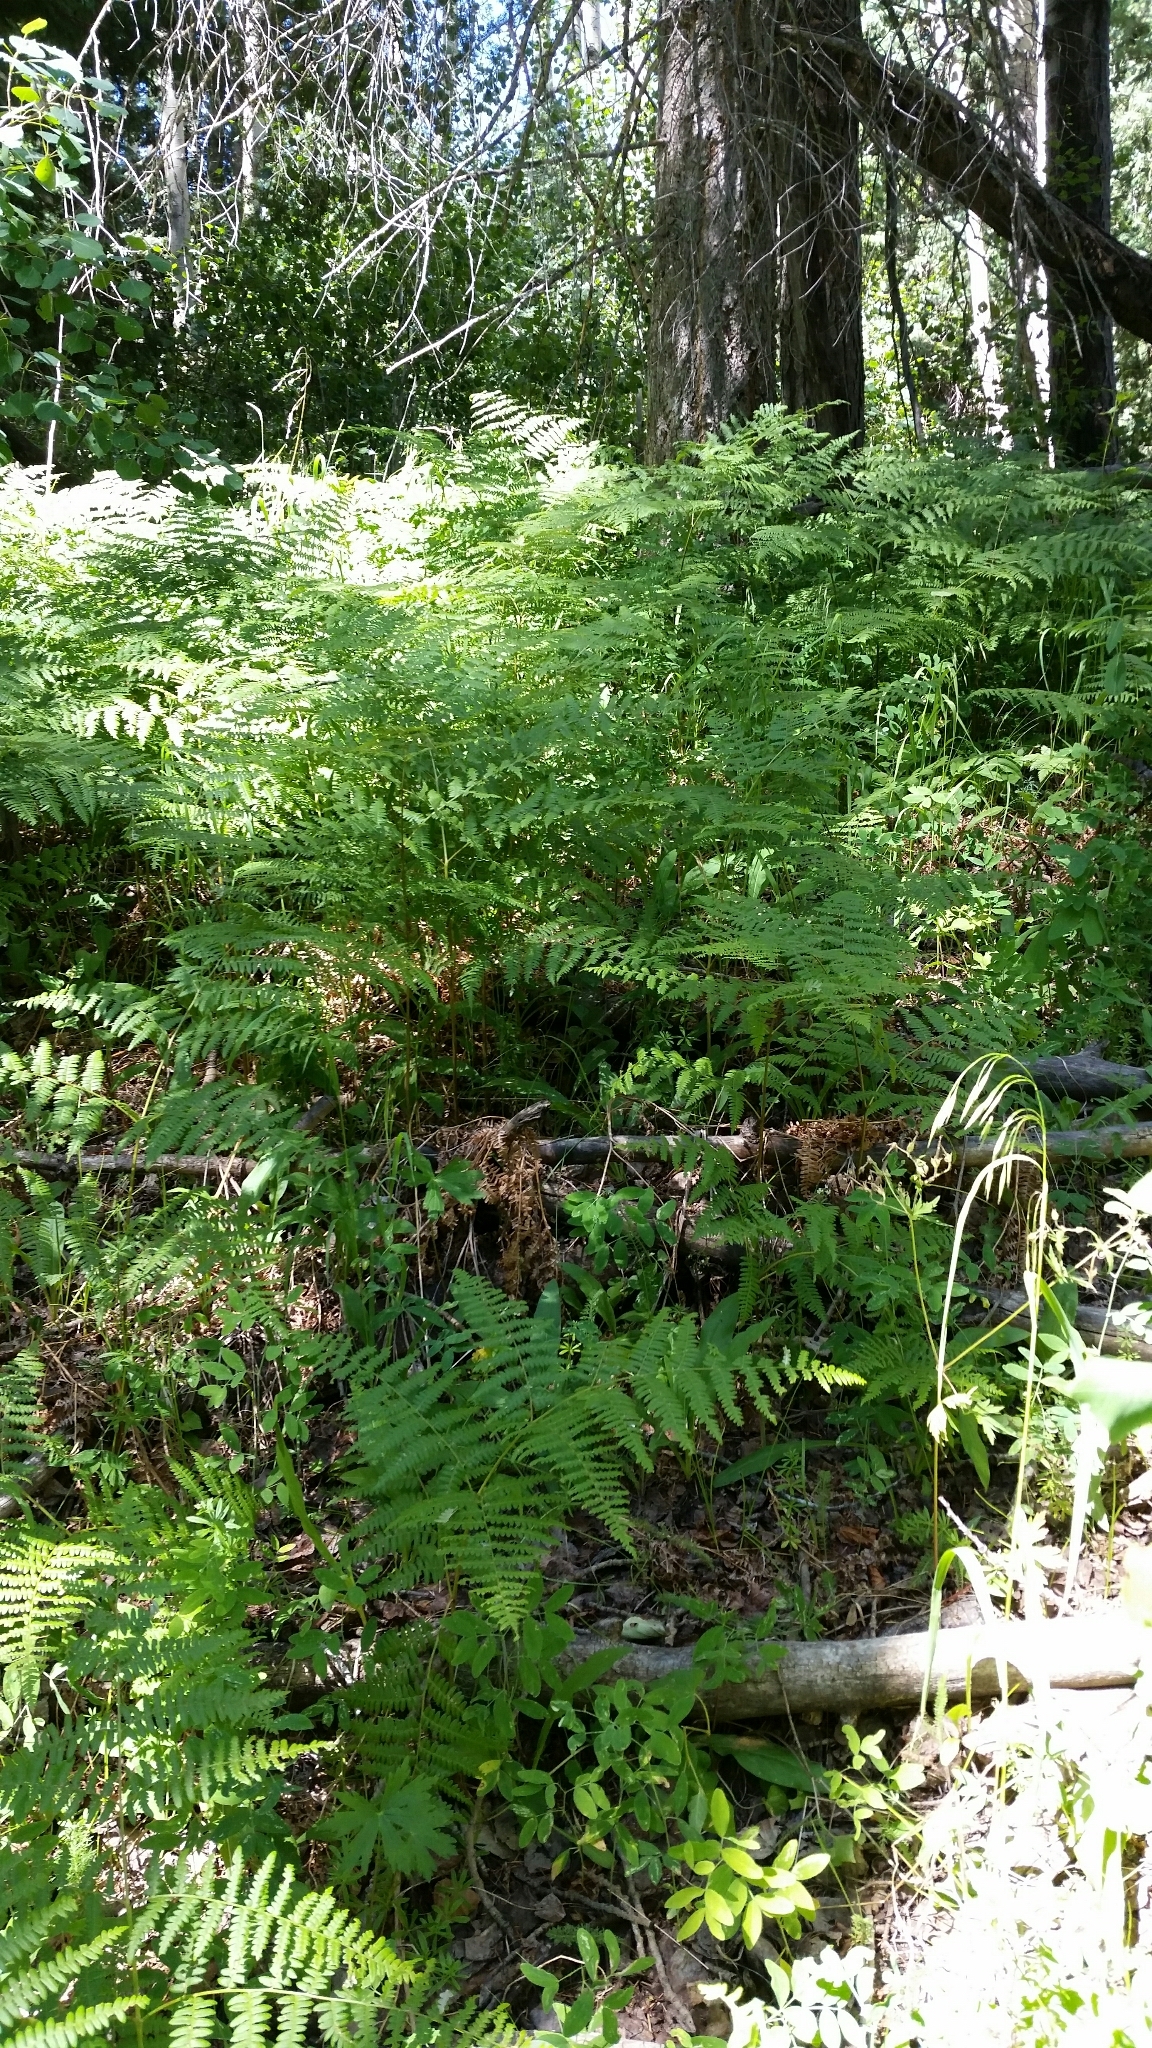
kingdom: Plantae
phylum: Tracheophyta
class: Polypodiopsida
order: Polypodiales
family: Dennstaedtiaceae
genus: Pteridium
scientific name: Pteridium aquilinum
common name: Bracken
